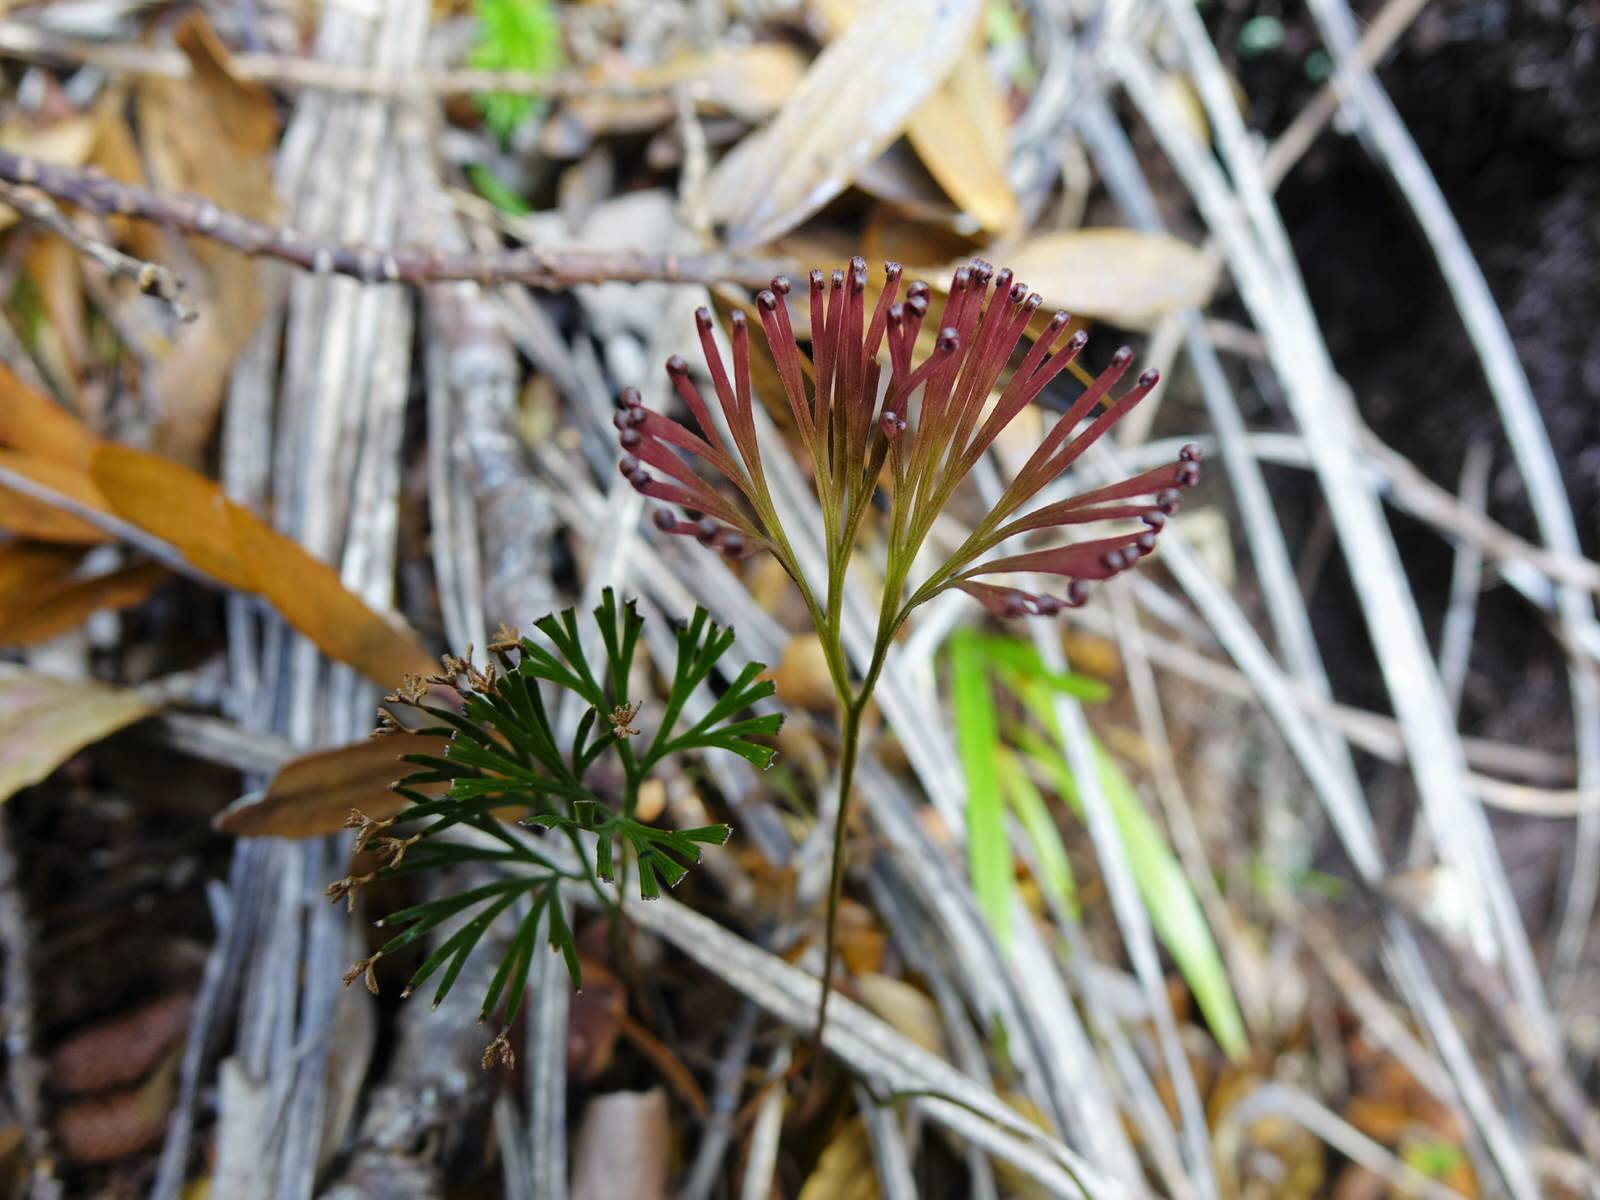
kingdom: Plantae
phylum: Tracheophyta
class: Polypodiopsida
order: Schizaeales
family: Schizaeaceae
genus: Schizaea
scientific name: Schizaea dichotoma
